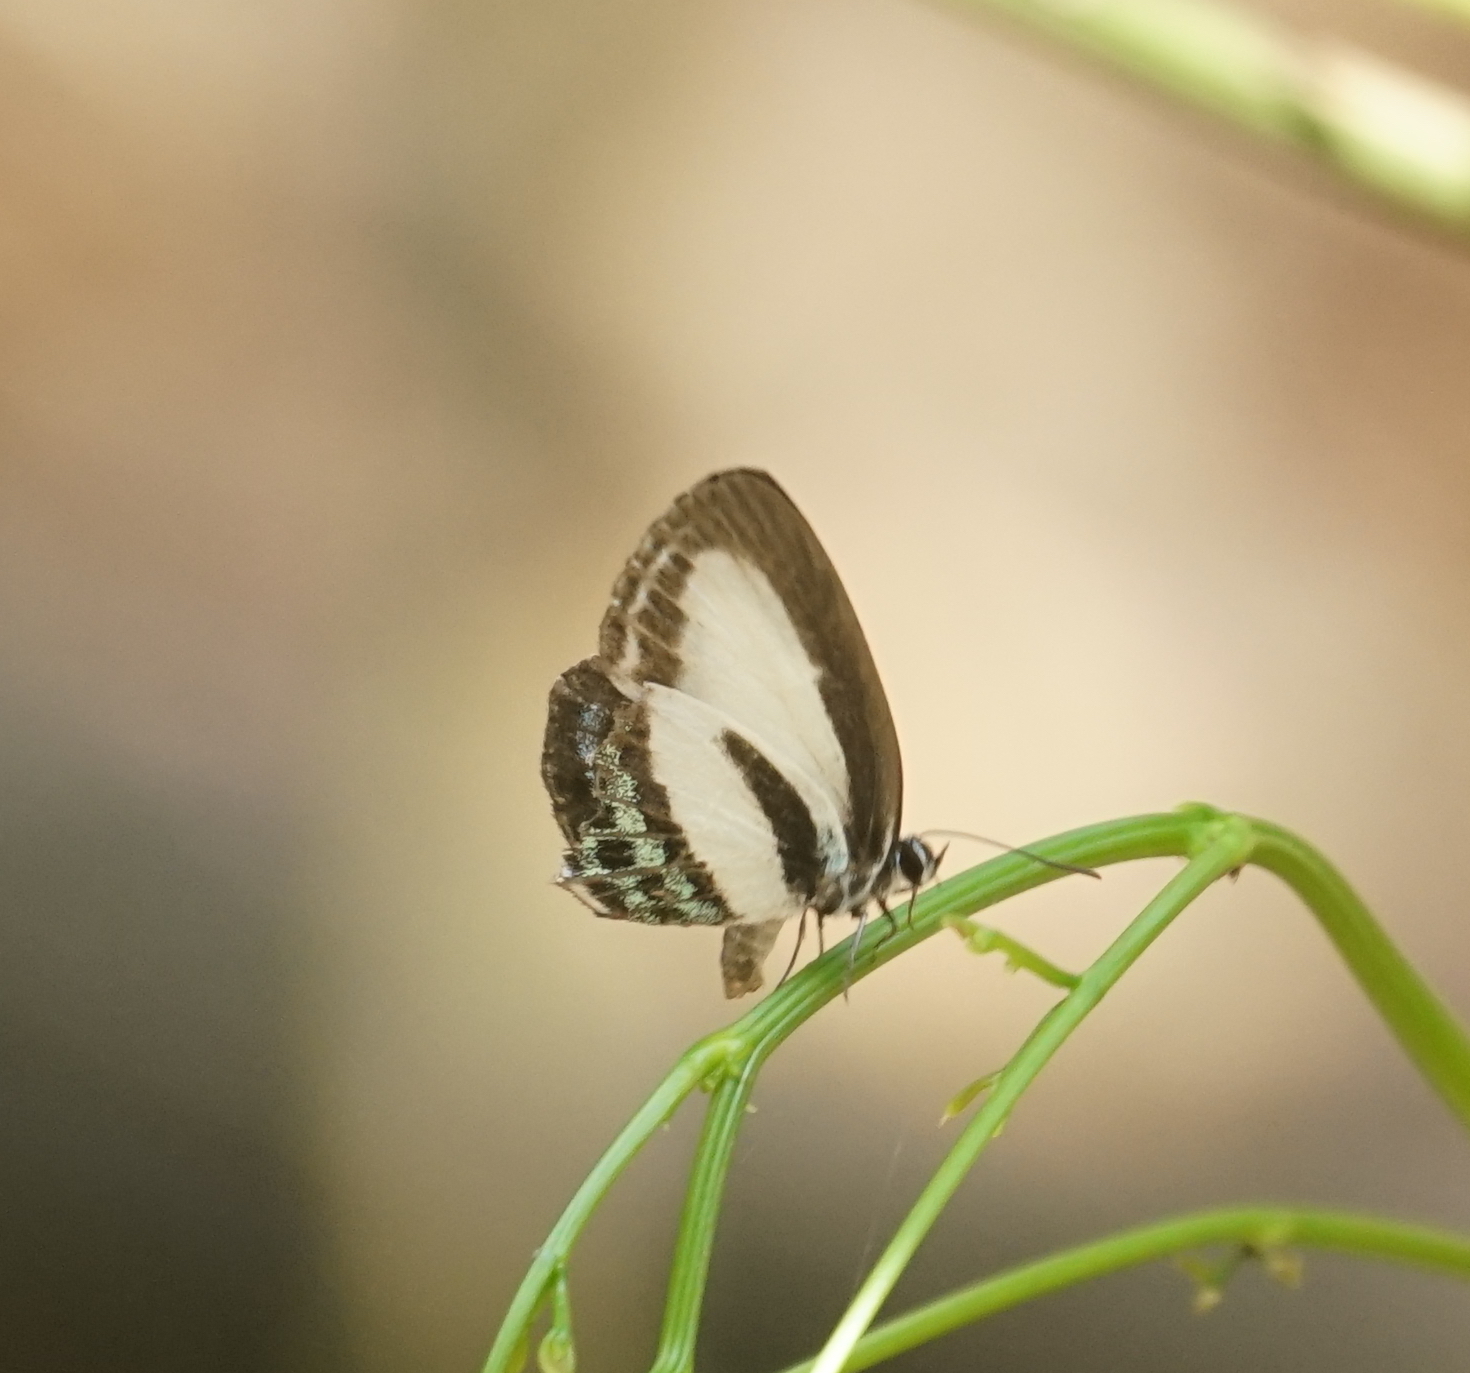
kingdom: Animalia
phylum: Arthropoda
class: Insecta
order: Lepidoptera
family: Lycaenidae
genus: Nacaduba
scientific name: Nacaduba cyanea
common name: Tailed green-banded line blue
